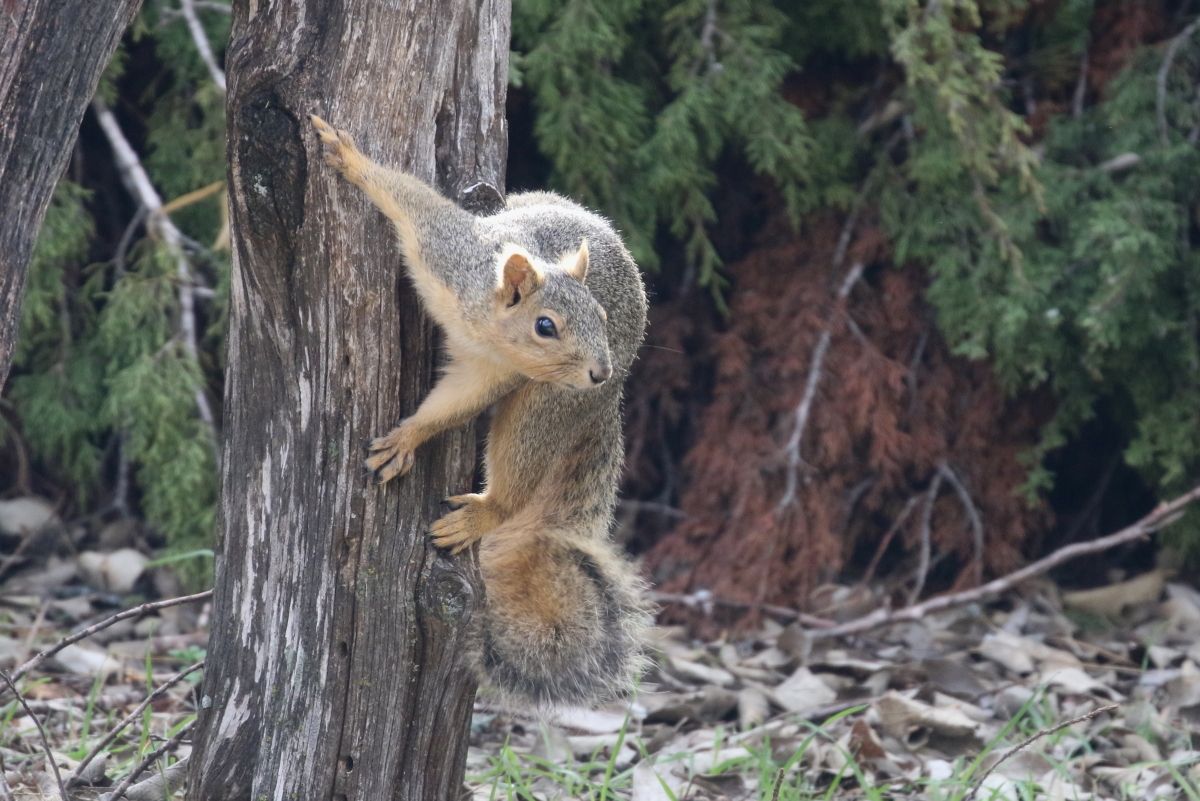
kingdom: Animalia
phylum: Chordata
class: Mammalia
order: Rodentia
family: Sciuridae
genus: Sciurus
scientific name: Sciurus niger
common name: Fox squirrel
